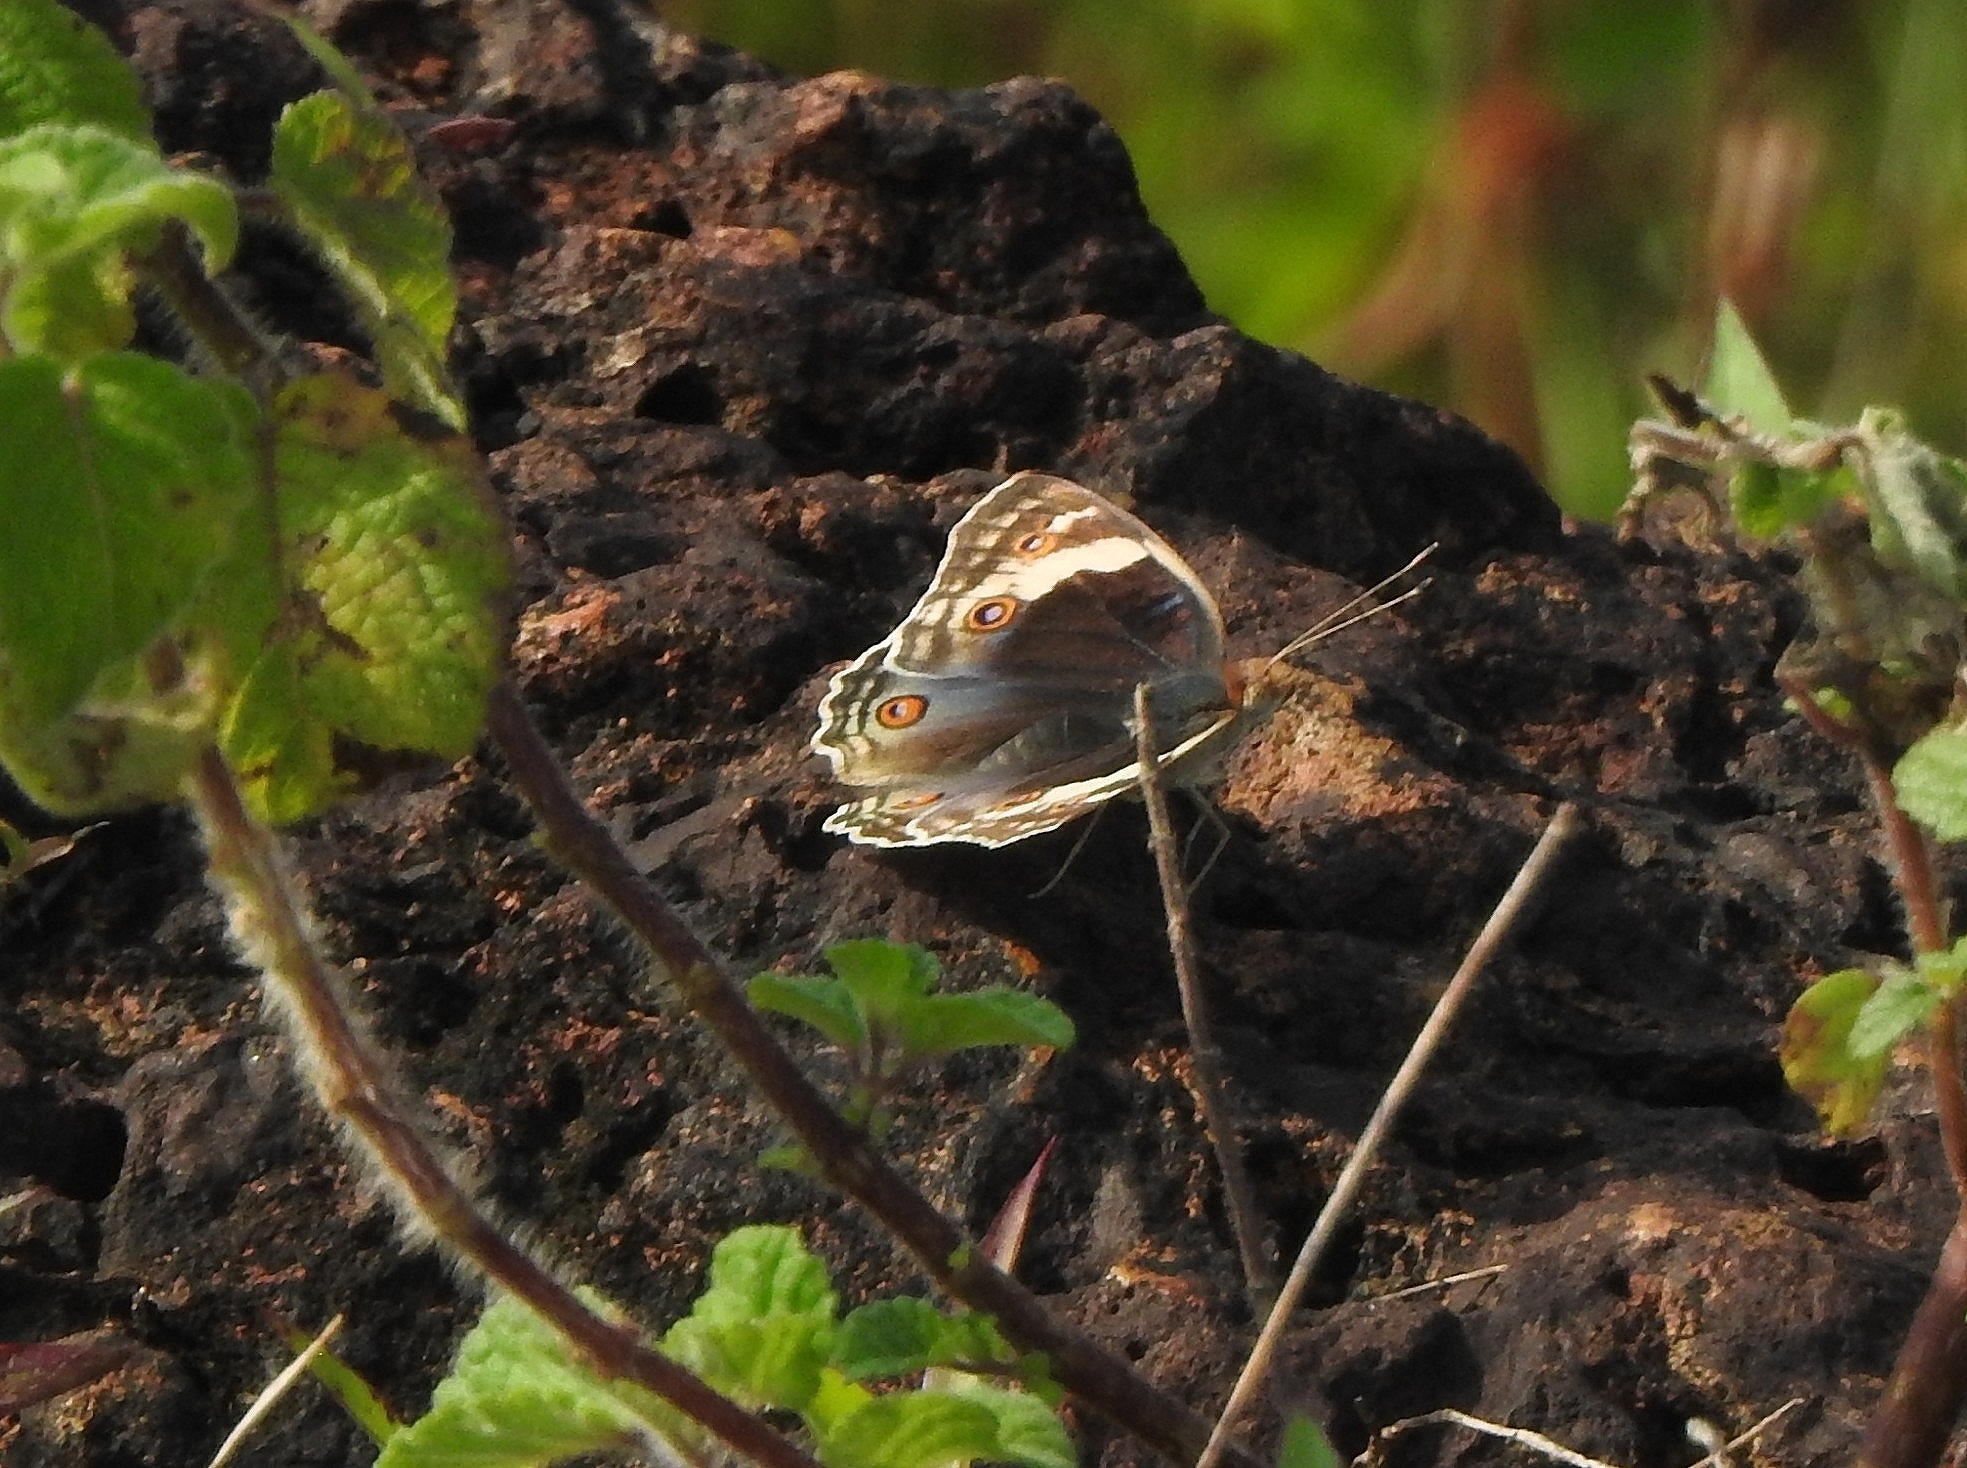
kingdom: Animalia
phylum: Arthropoda
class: Insecta
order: Lepidoptera
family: Nymphalidae
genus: Junonia
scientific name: Junonia orithya
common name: Blue pansy
